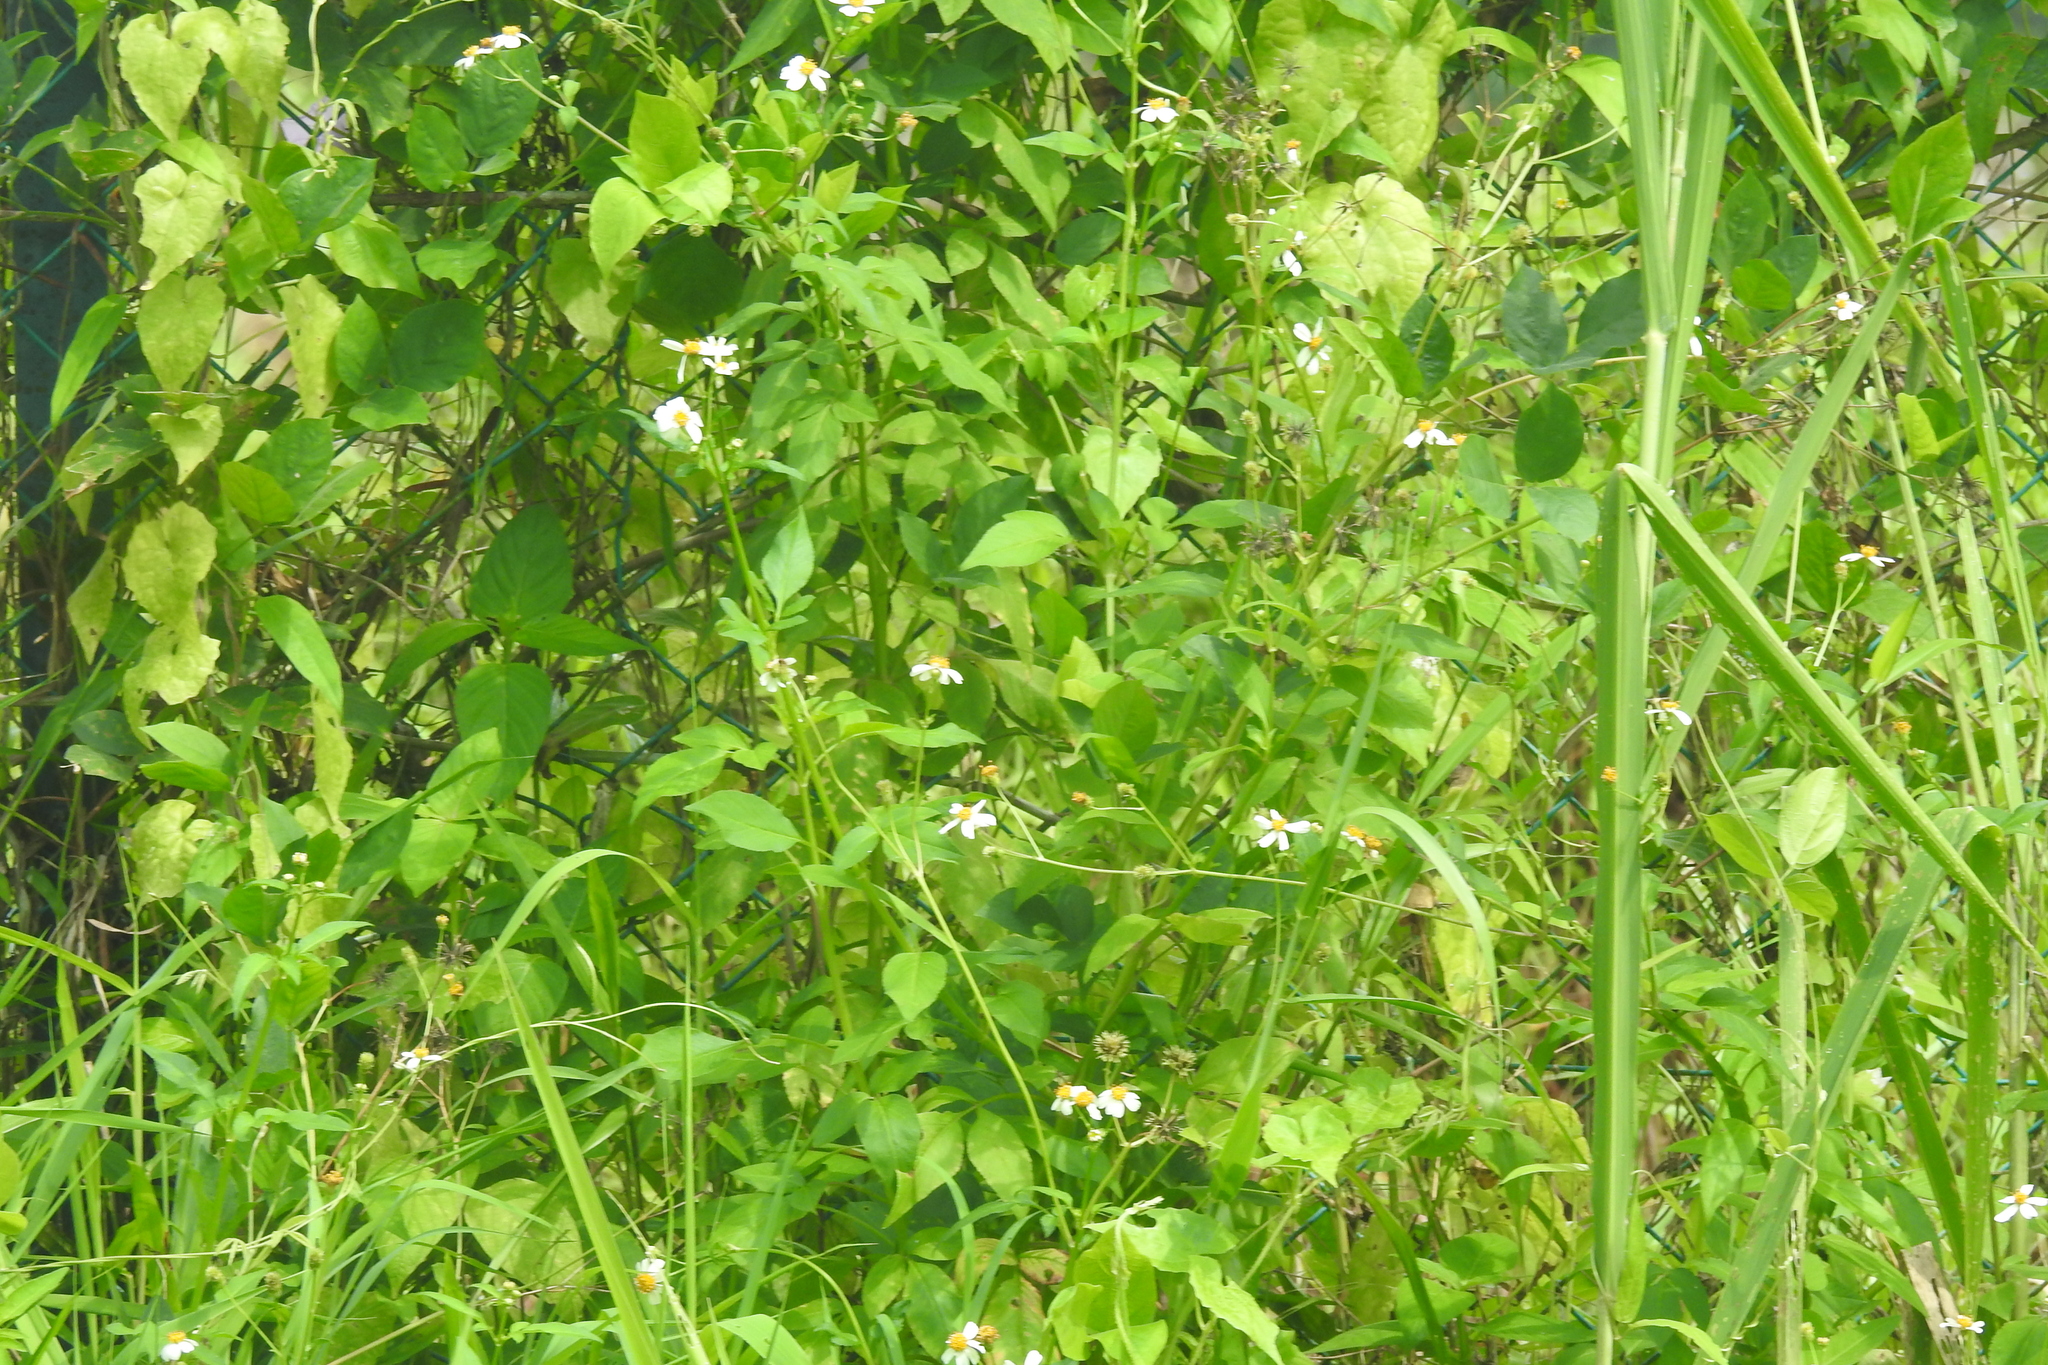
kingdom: Plantae
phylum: Tracheophyta
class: Magnoliopsida
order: Asterales
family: Asteraceae
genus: Bidens
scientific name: Bidens alba
